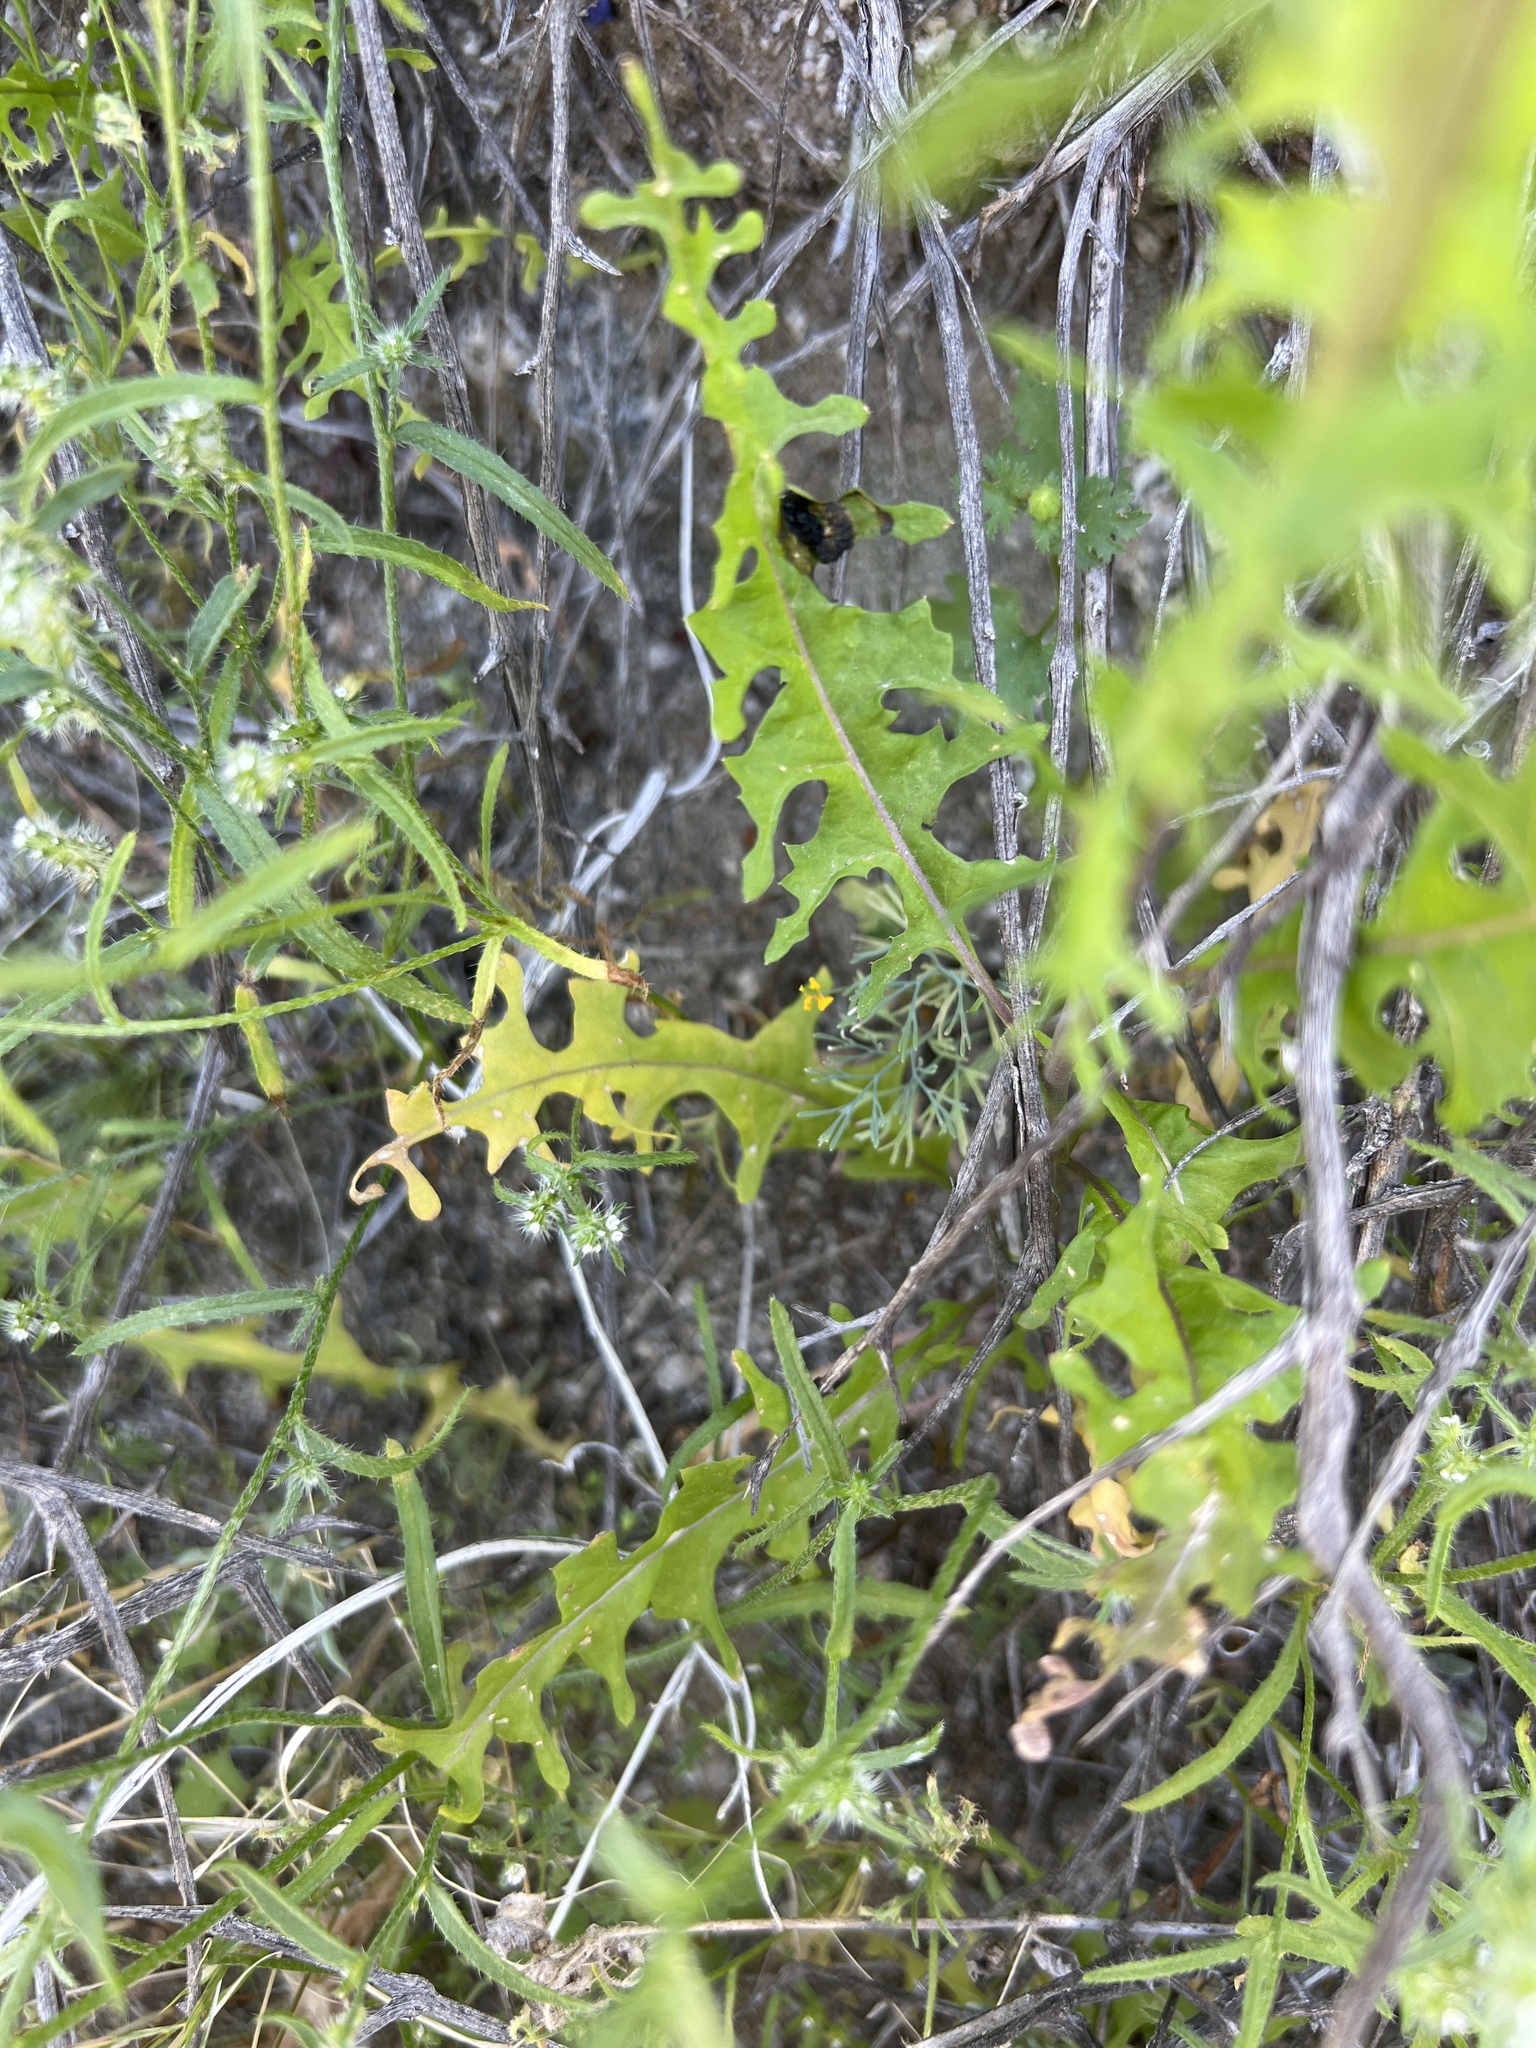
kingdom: Plantae
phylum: Tracheophyta
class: Magnoliopsida
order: Brassicales
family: Brassicaceae
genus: Streptanthus
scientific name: Streptanthus lasiophyllus
